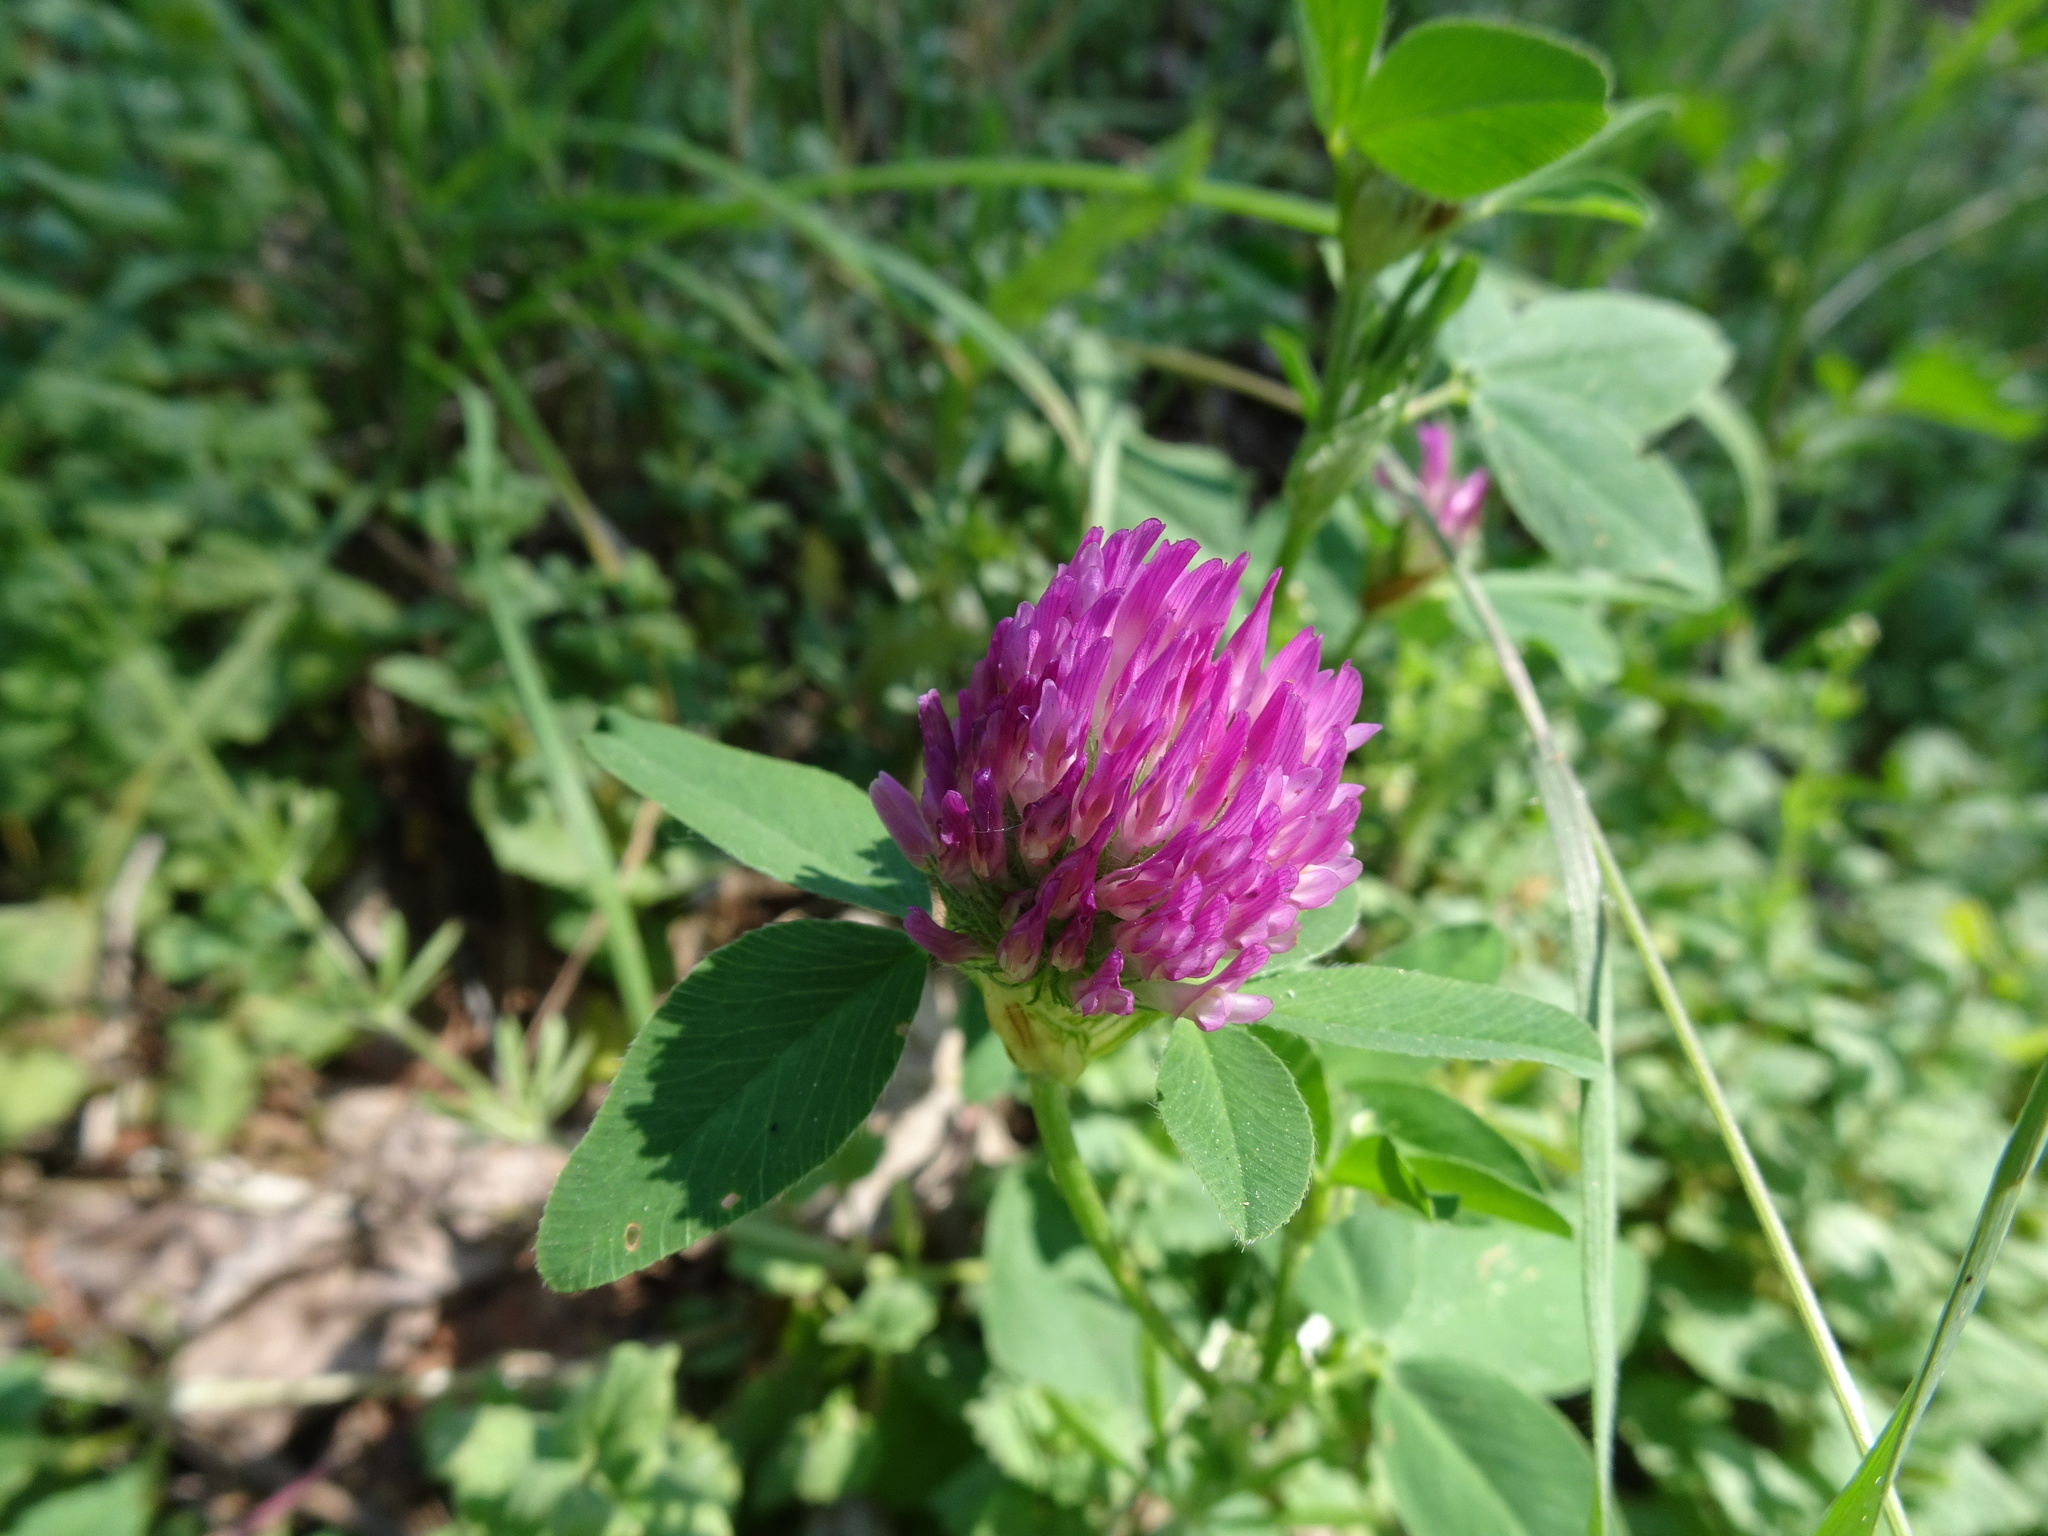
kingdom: Plantae
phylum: Tracheophyta
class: Magnoliopsida
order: Fabales
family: Fabaceae
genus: Trifolium
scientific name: Trifolium medium
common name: Zigzag clover
